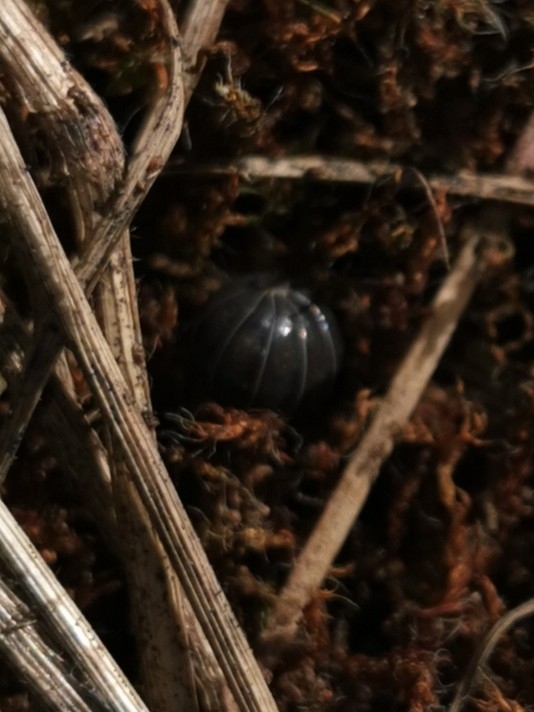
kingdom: Animalia
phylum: Arthropoda
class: Malacostraca
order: Isopoda
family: Armadillidiidae
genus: Armadillidium
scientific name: Armadillidium vulgare
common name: Common pill woodlouse
